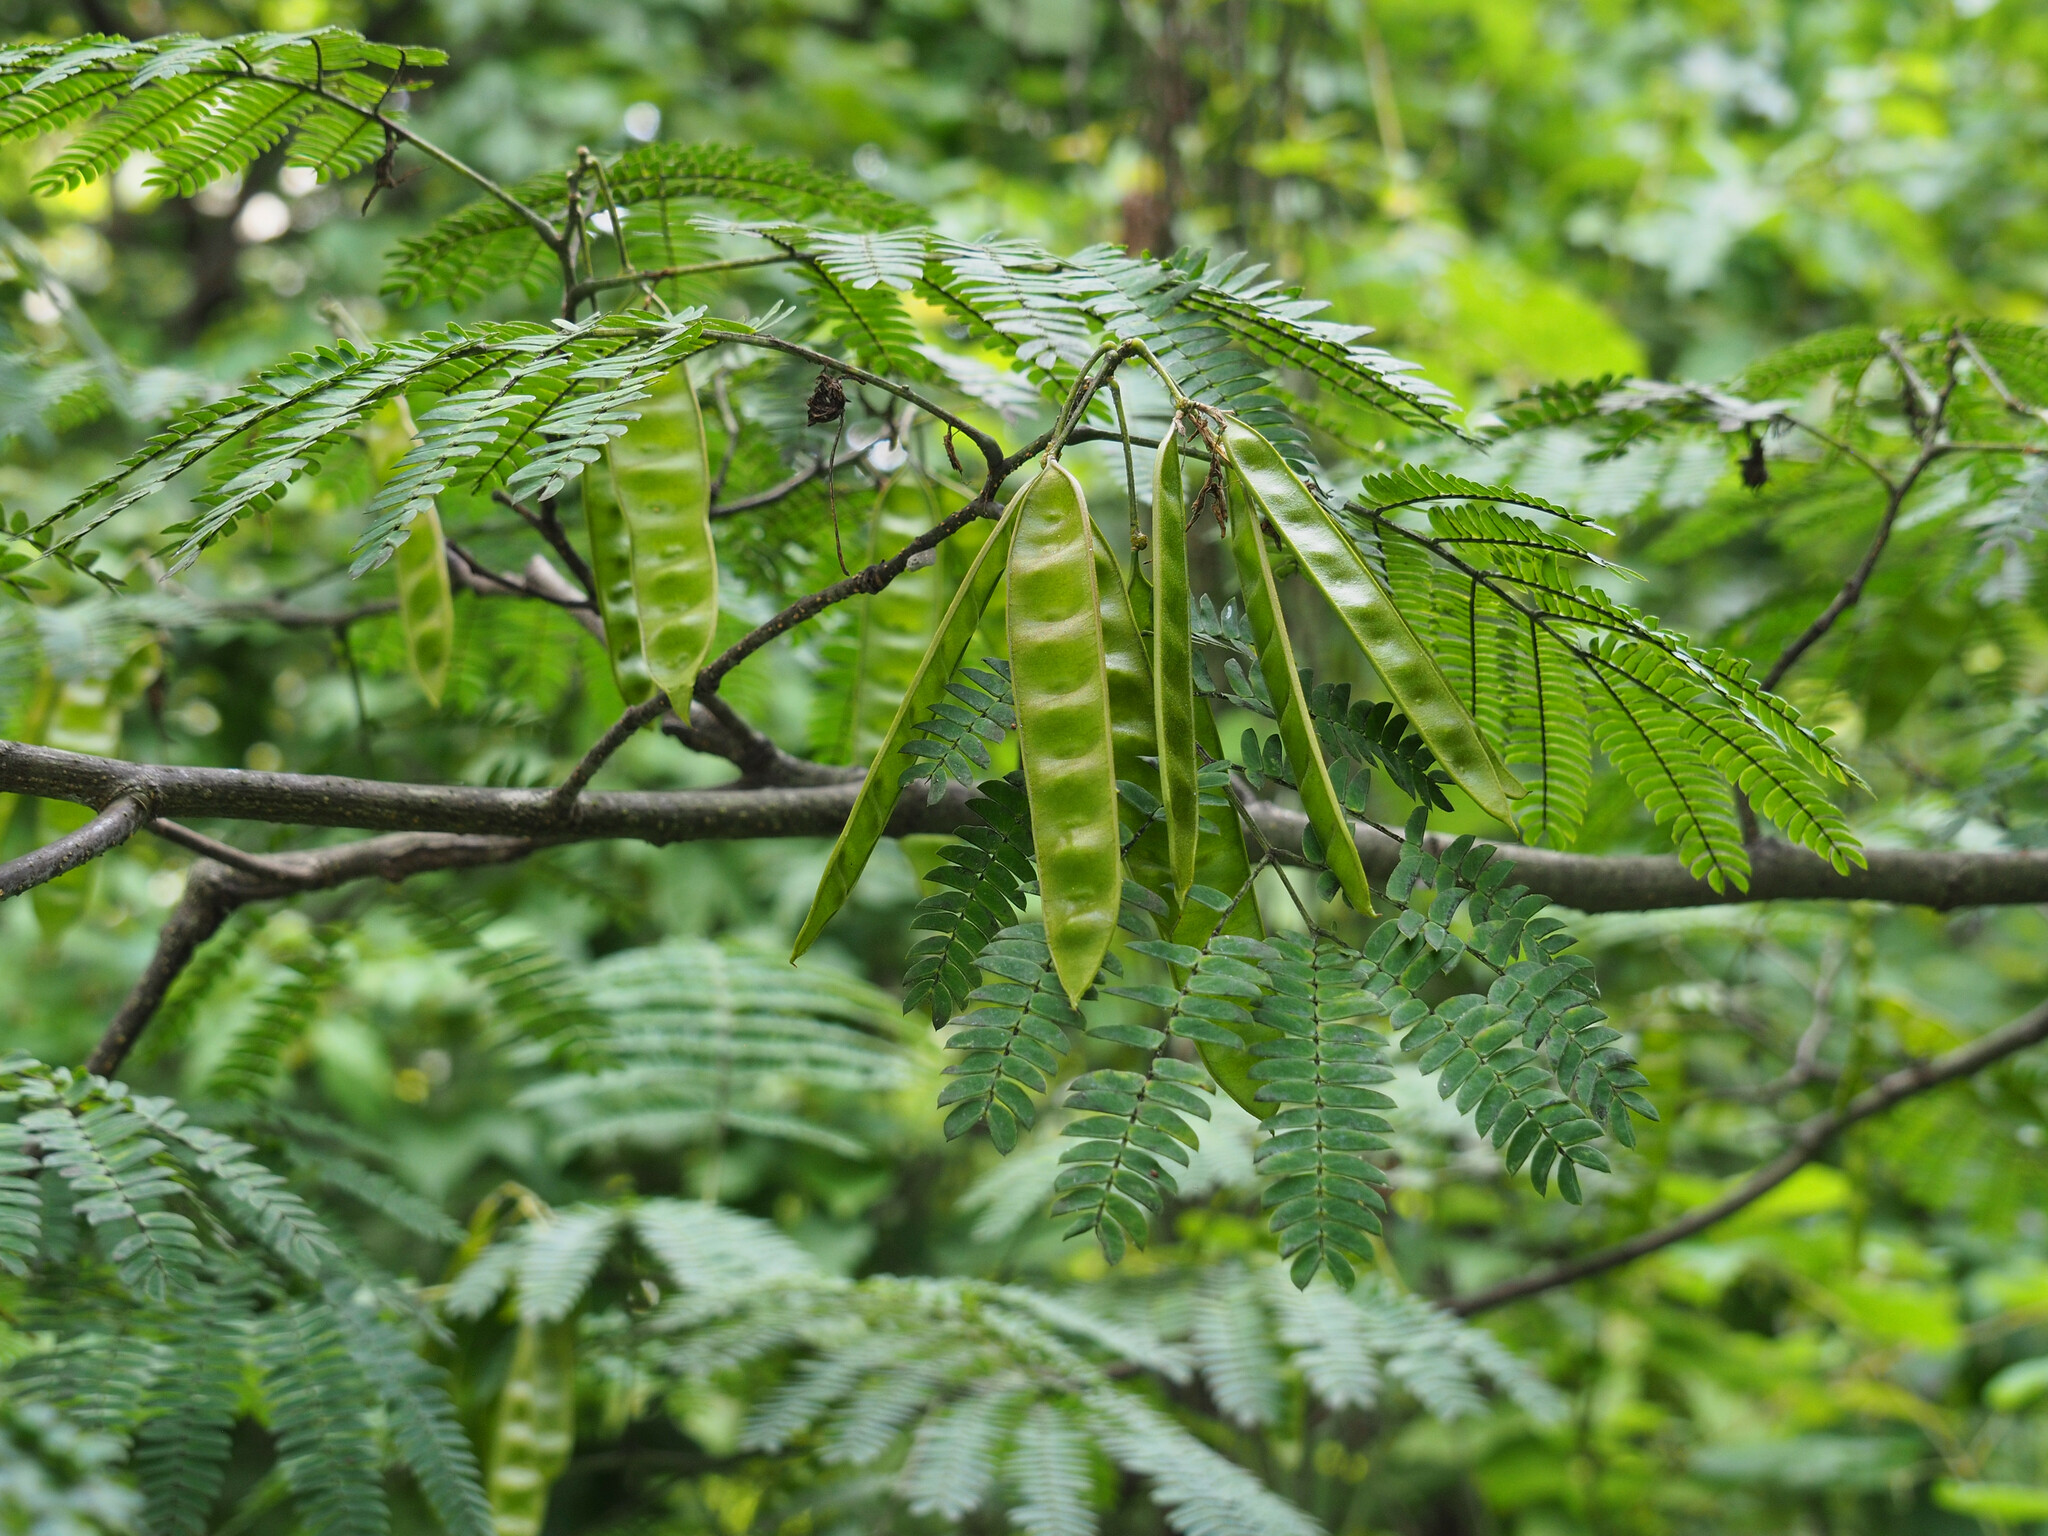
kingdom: Plantae
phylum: Tracheophyta
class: Magnoliopsida
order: Fabales
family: Fabaceae
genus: Albizia
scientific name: Albizia julibrissin
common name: Silktree
